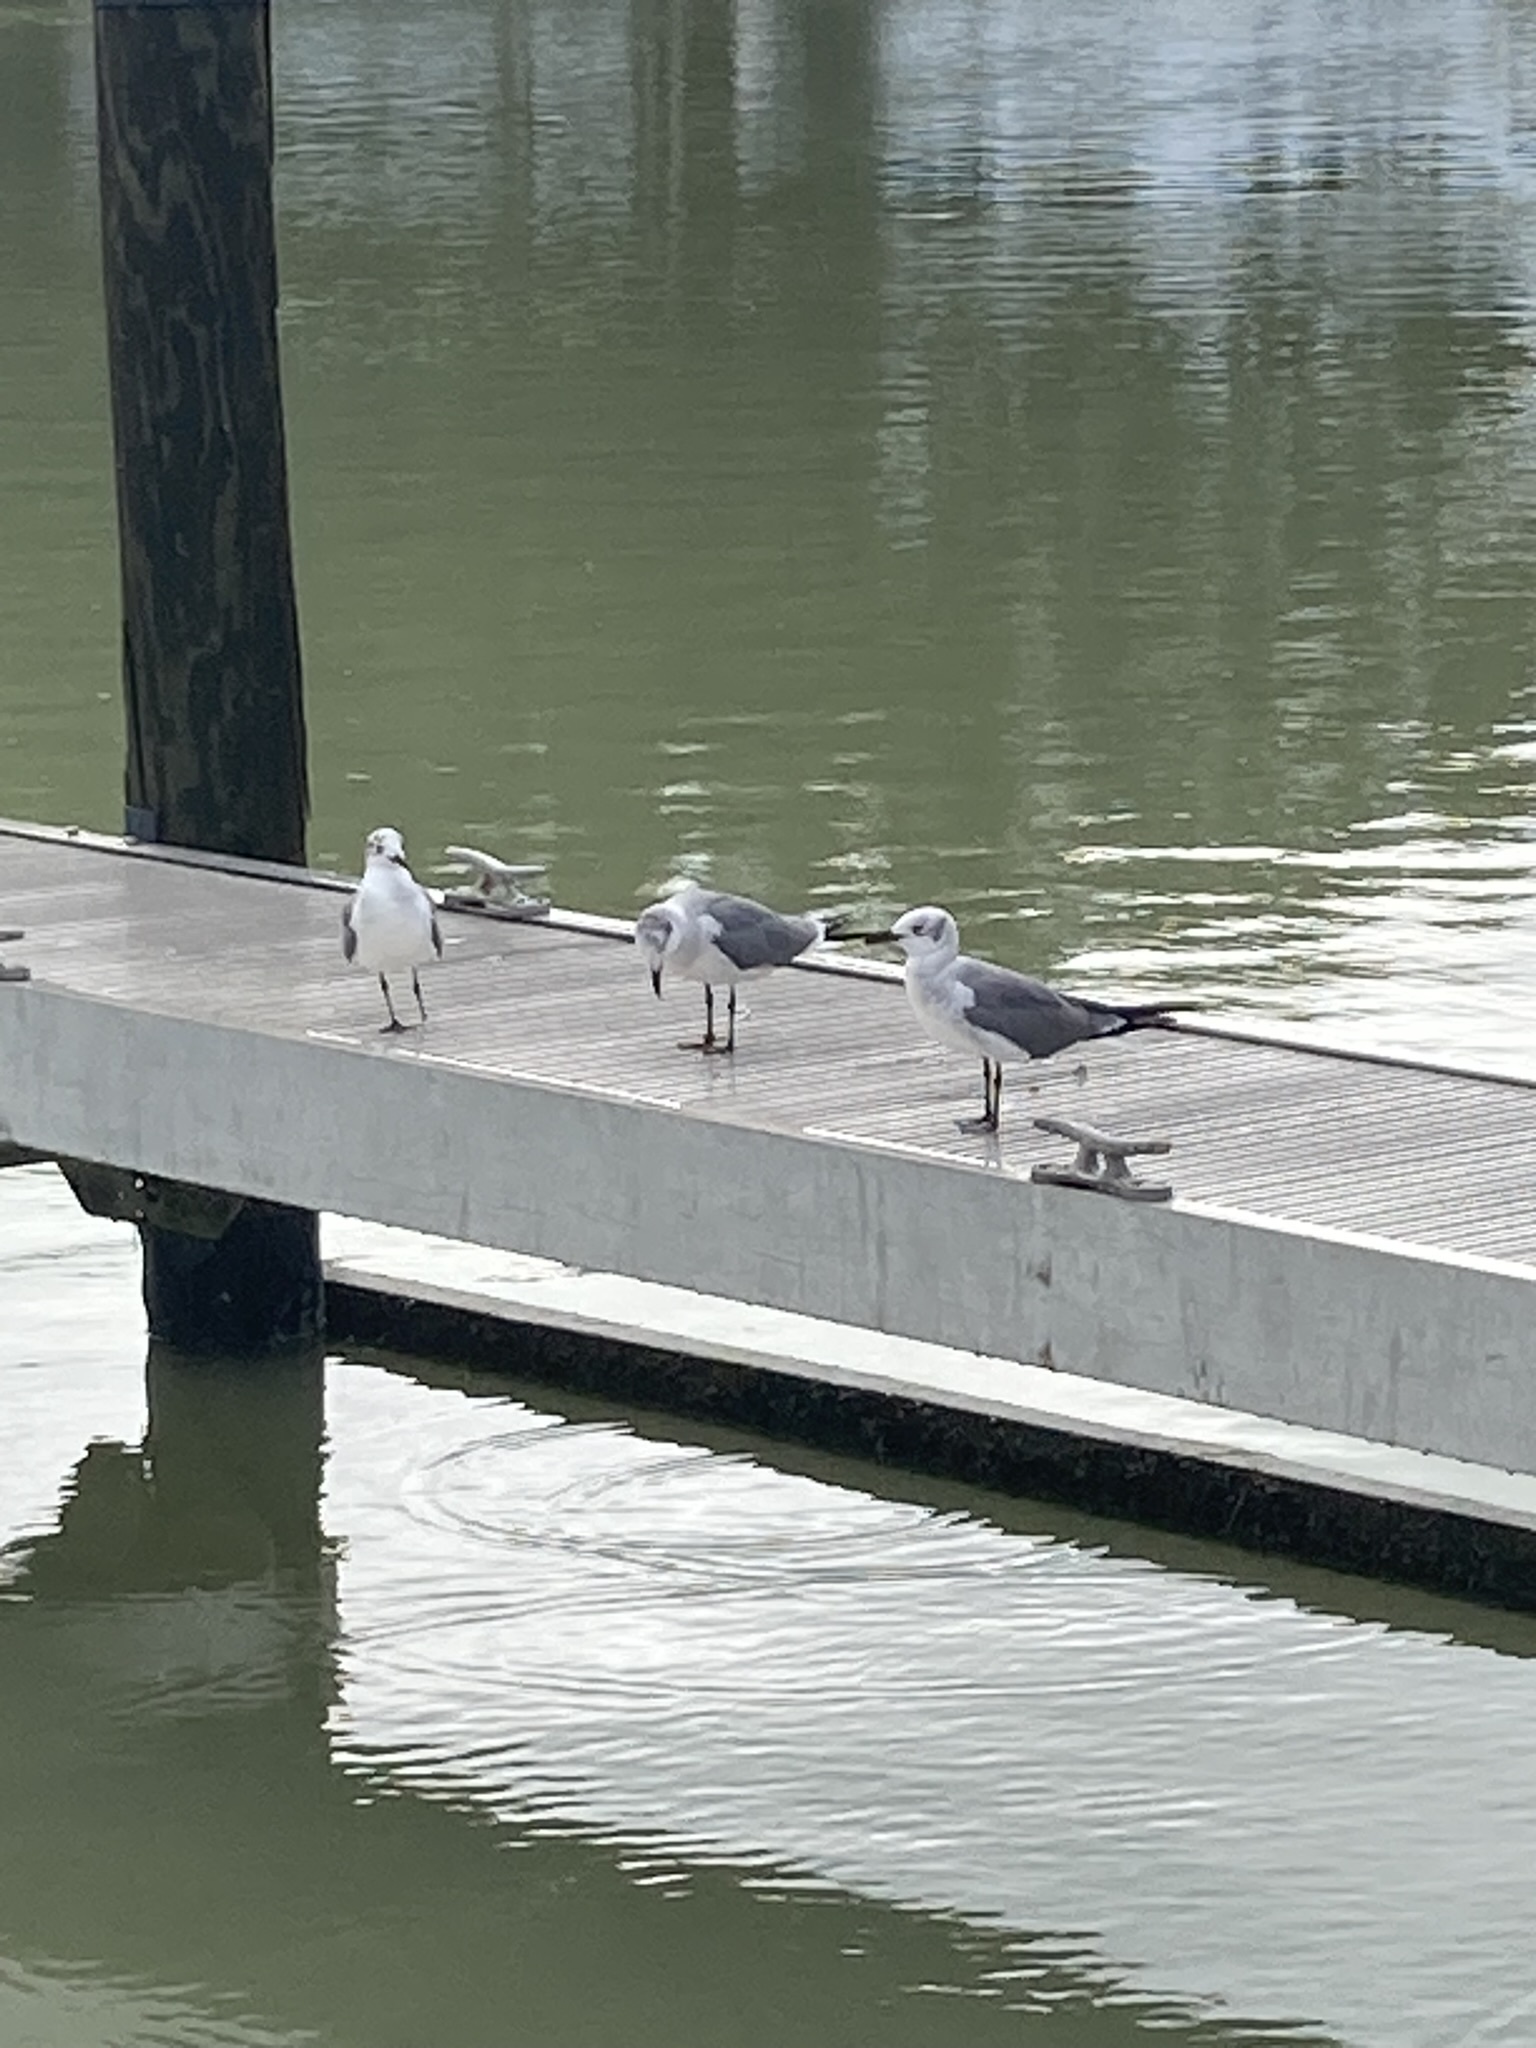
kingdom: Animalia
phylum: Chordata
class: Aves
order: Charadriiformes
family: Laridae
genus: Leucophaeus
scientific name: Leucophaeus atricilla
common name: Laughing gull
